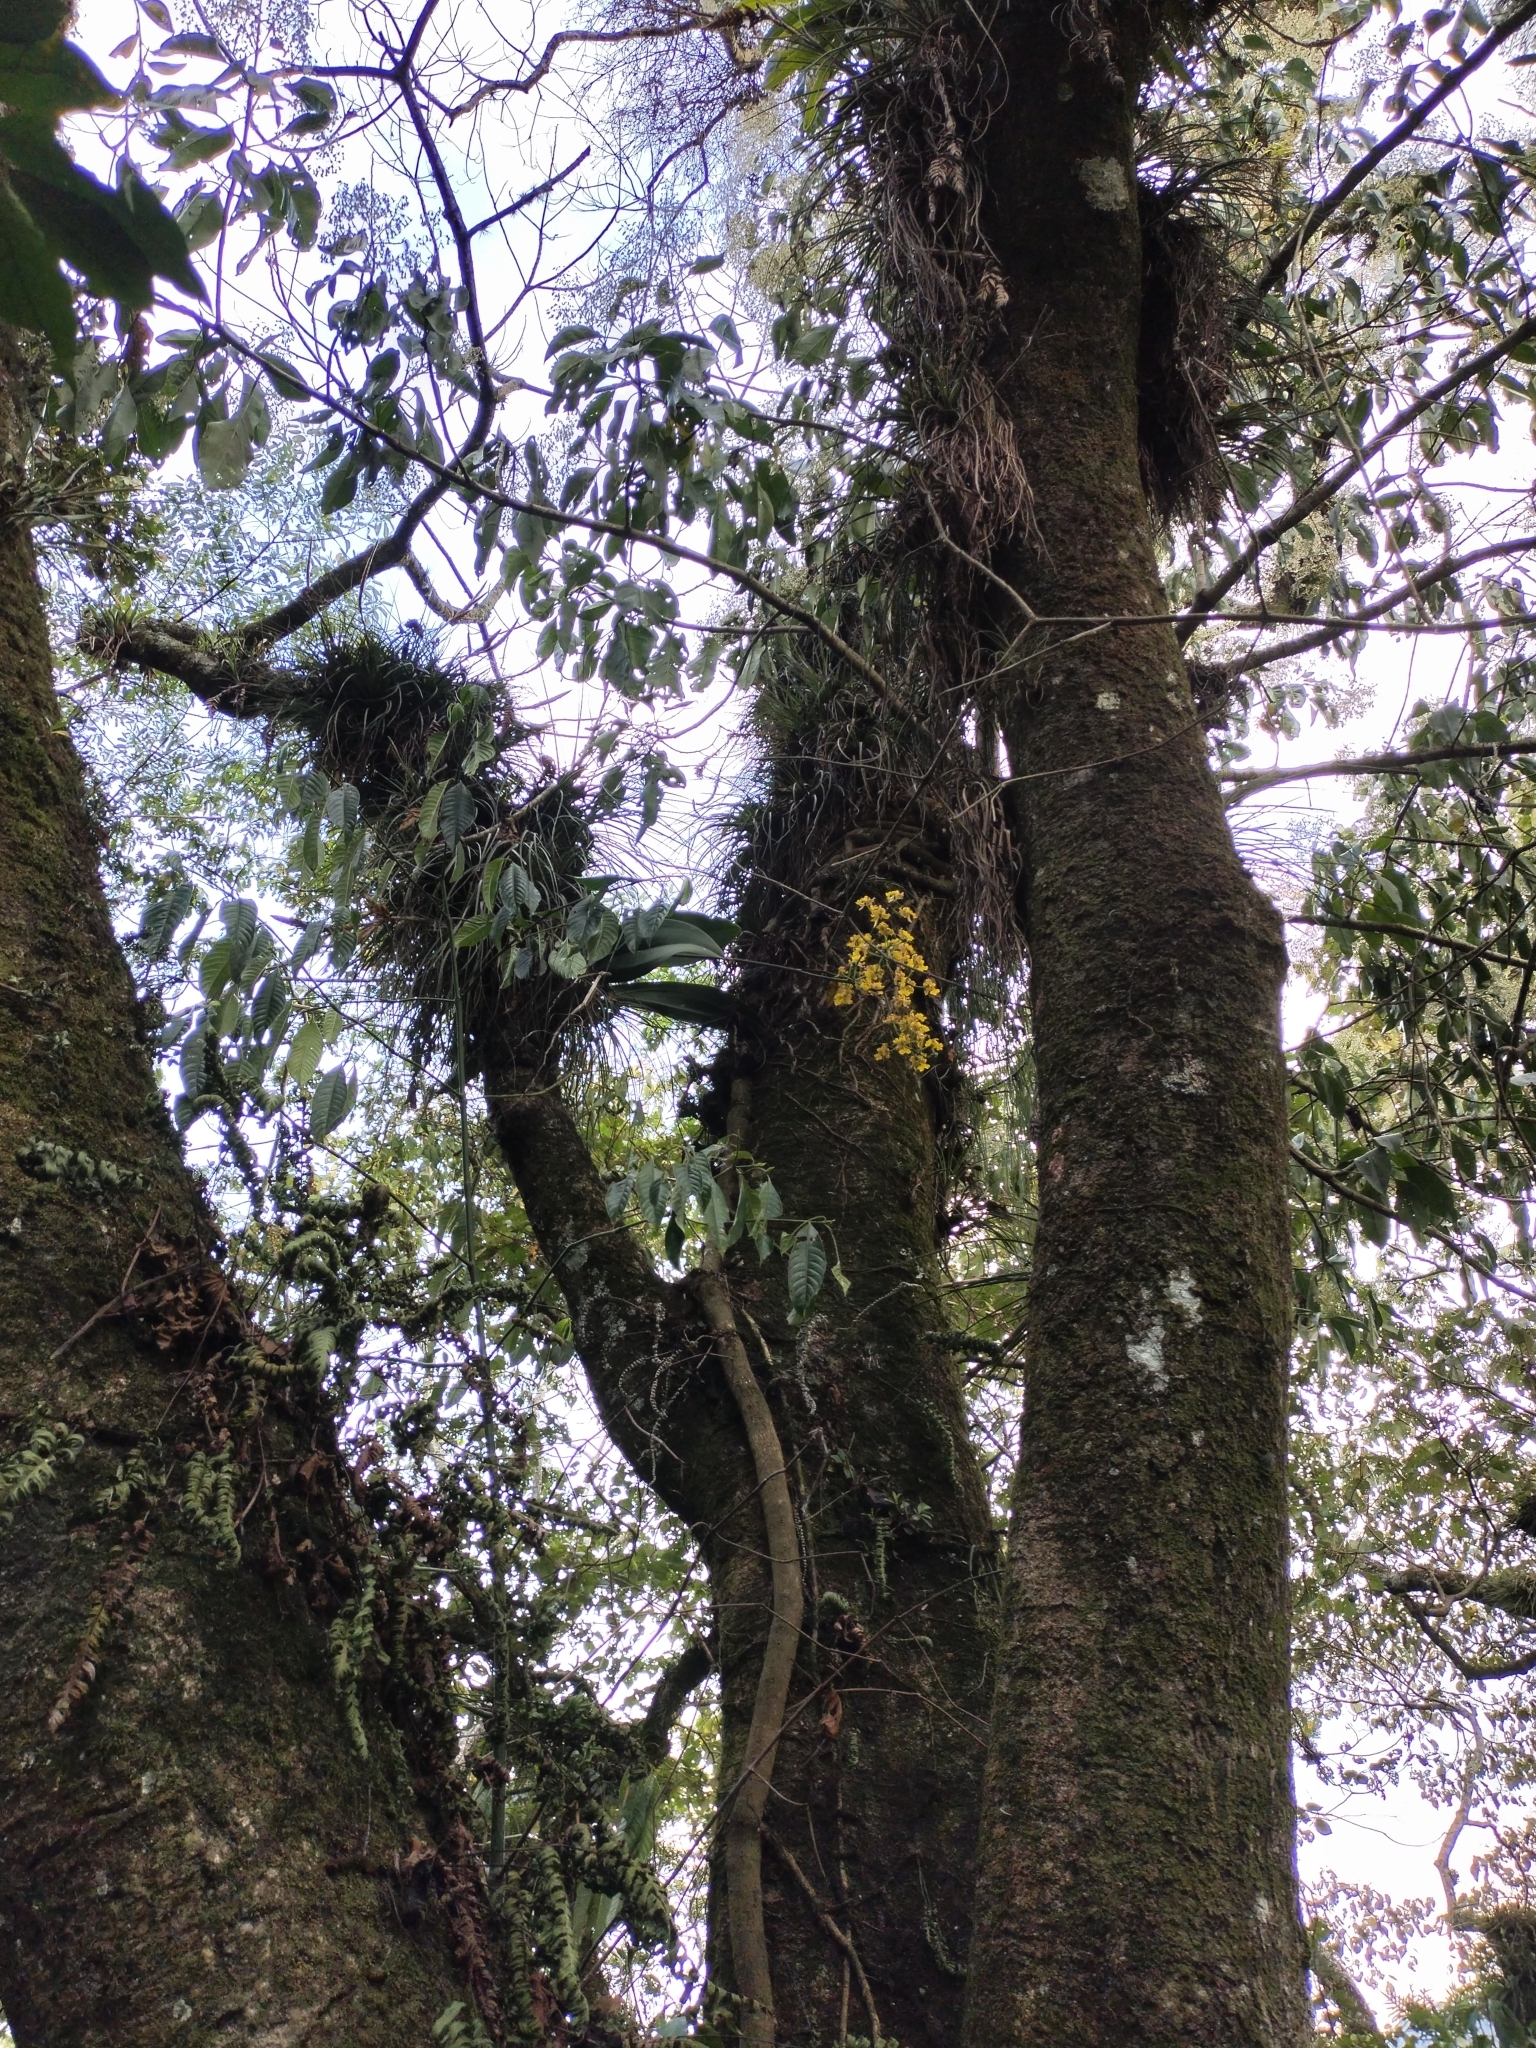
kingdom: Plantae
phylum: Tracheophyta
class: Liliopsida
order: Asparagales
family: Orchidaceae
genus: Trichocentrum
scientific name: Trichocentrum cavendishianum
